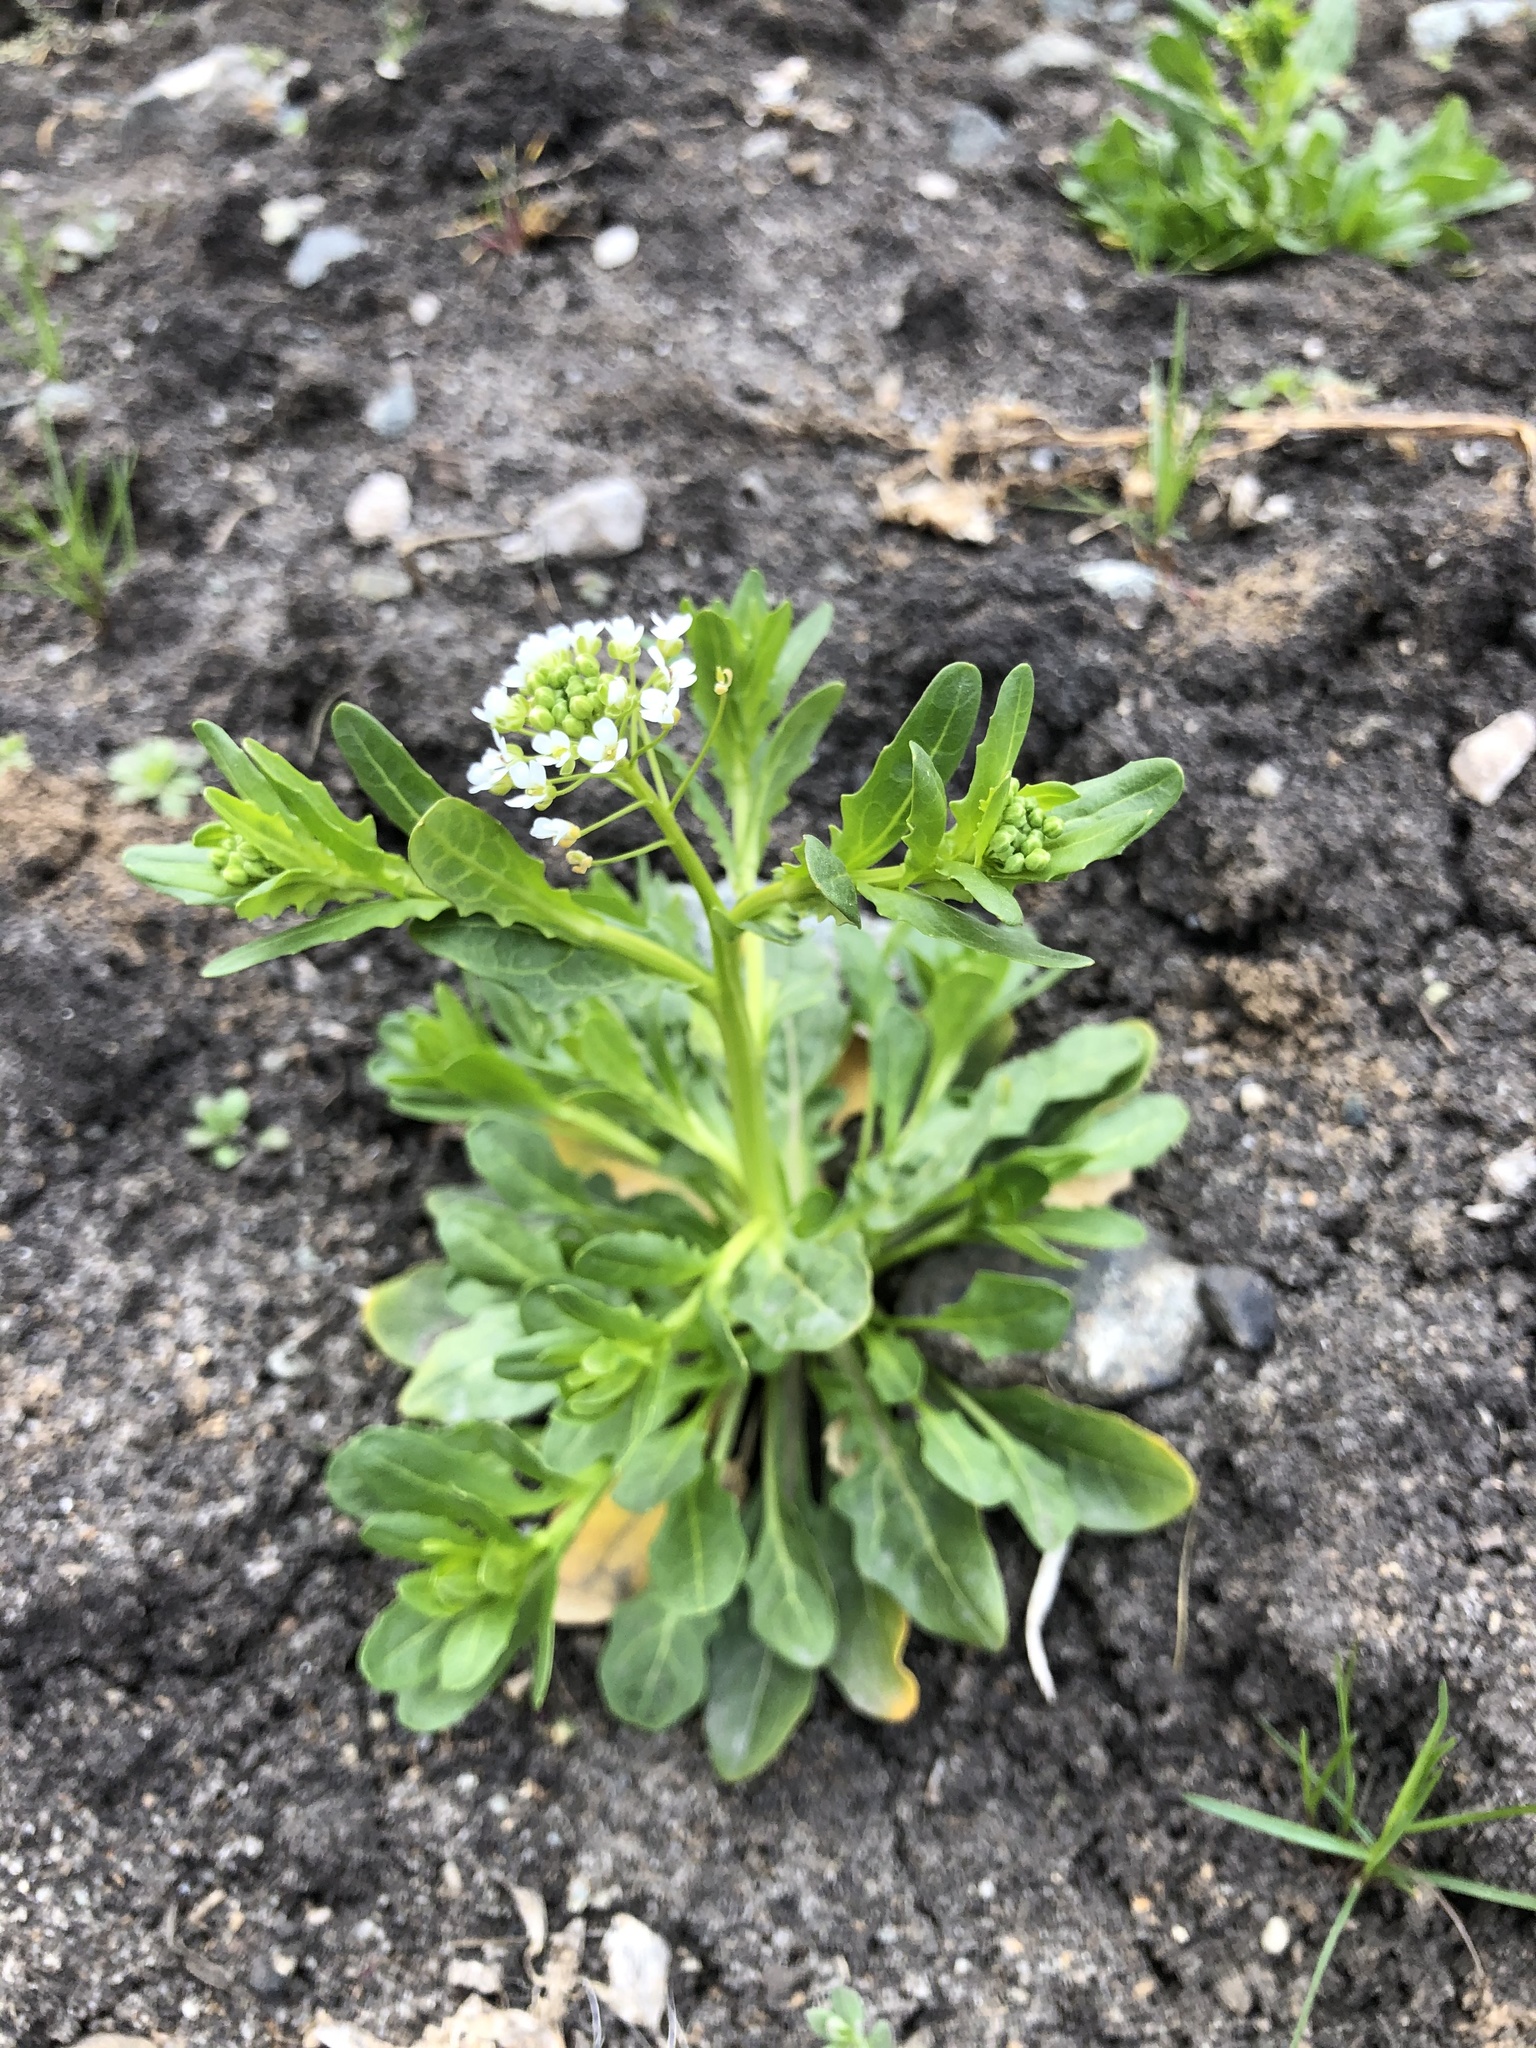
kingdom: Plantae
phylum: Tracheophyta
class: Magnoliopsida
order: Brassicales
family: Brassicaceae
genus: Thlaspi
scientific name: Thlaspi arvense
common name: Field pennycress
